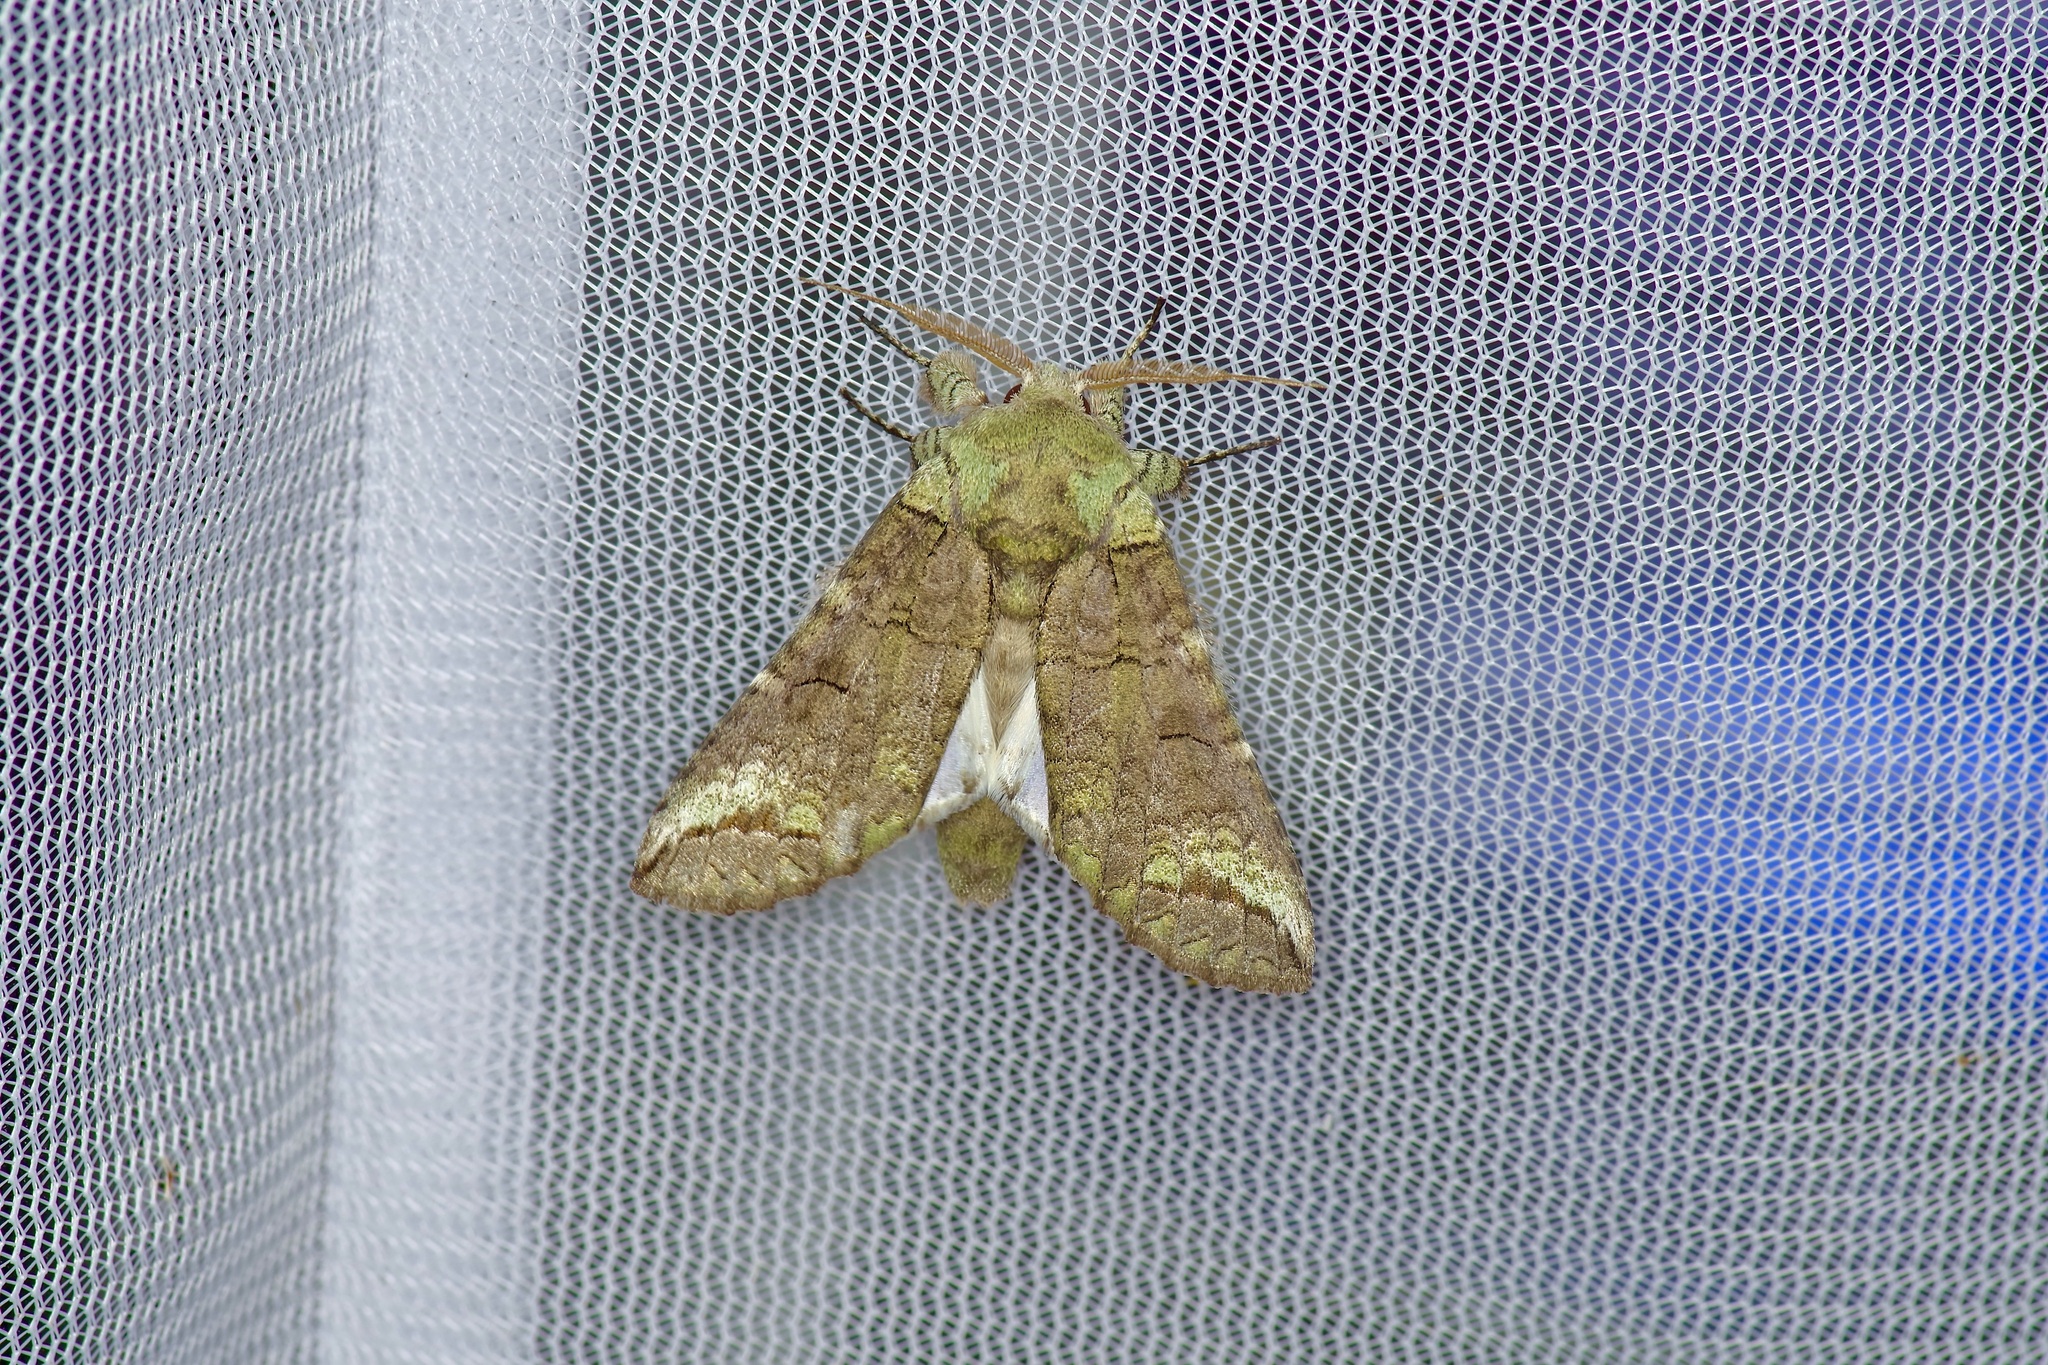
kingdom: Animalia
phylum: Arthropoda
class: Insecta
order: Lepidoptera
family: Notodontidae
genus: Heterocampa
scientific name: Heterocampa astartoides
